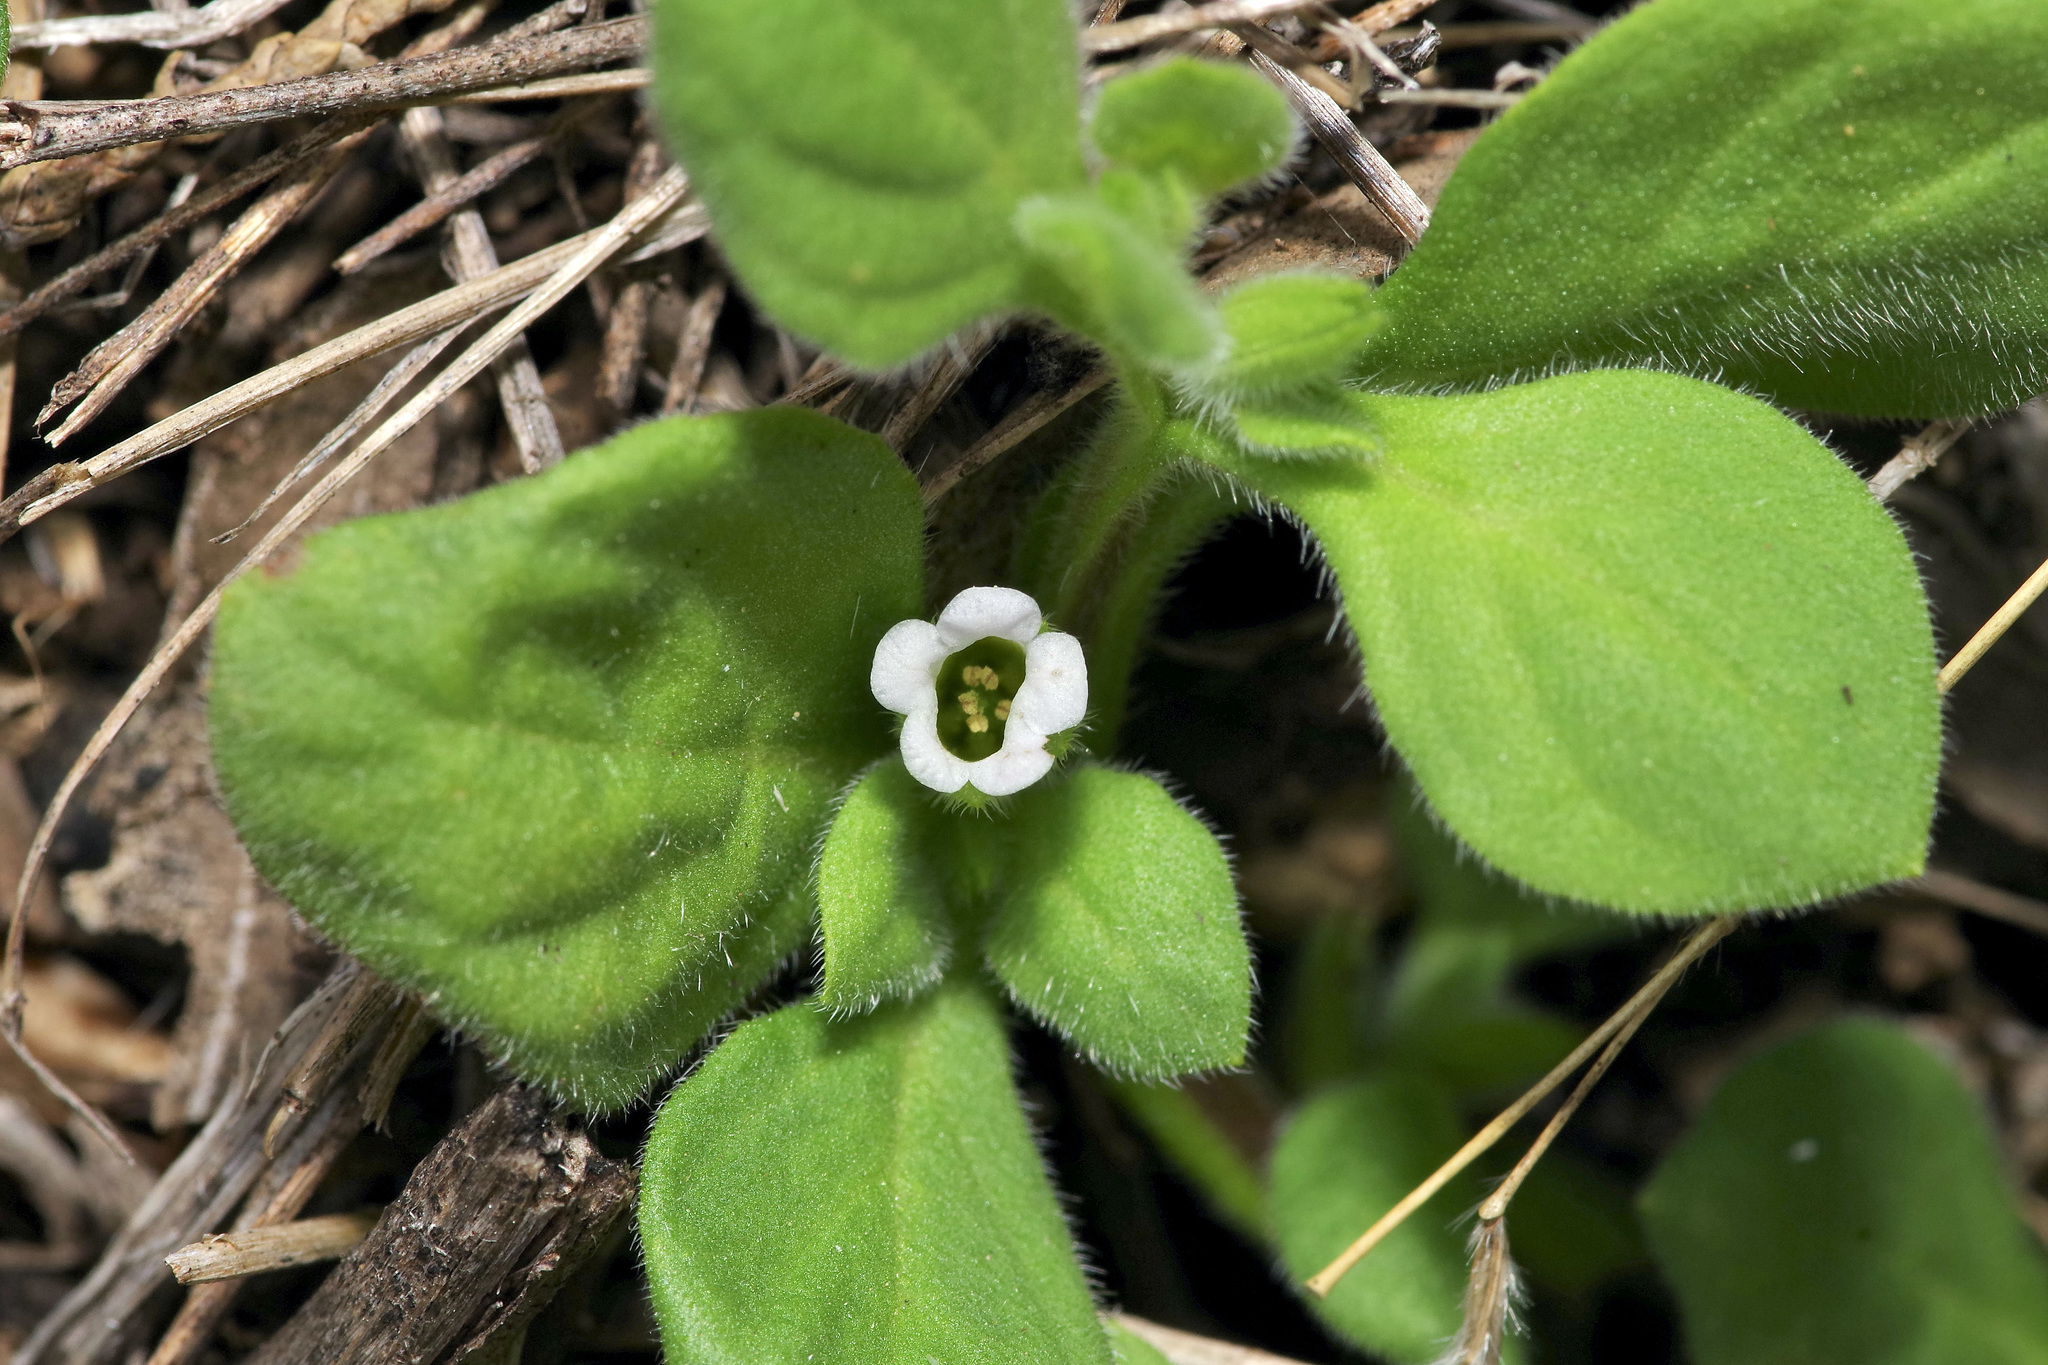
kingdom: Plantae
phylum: Tracheophyta
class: Magnoliopsida
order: Boraginales
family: Namaceae
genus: Nama
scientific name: Nama jamaicensis
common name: Jamaicanweed
